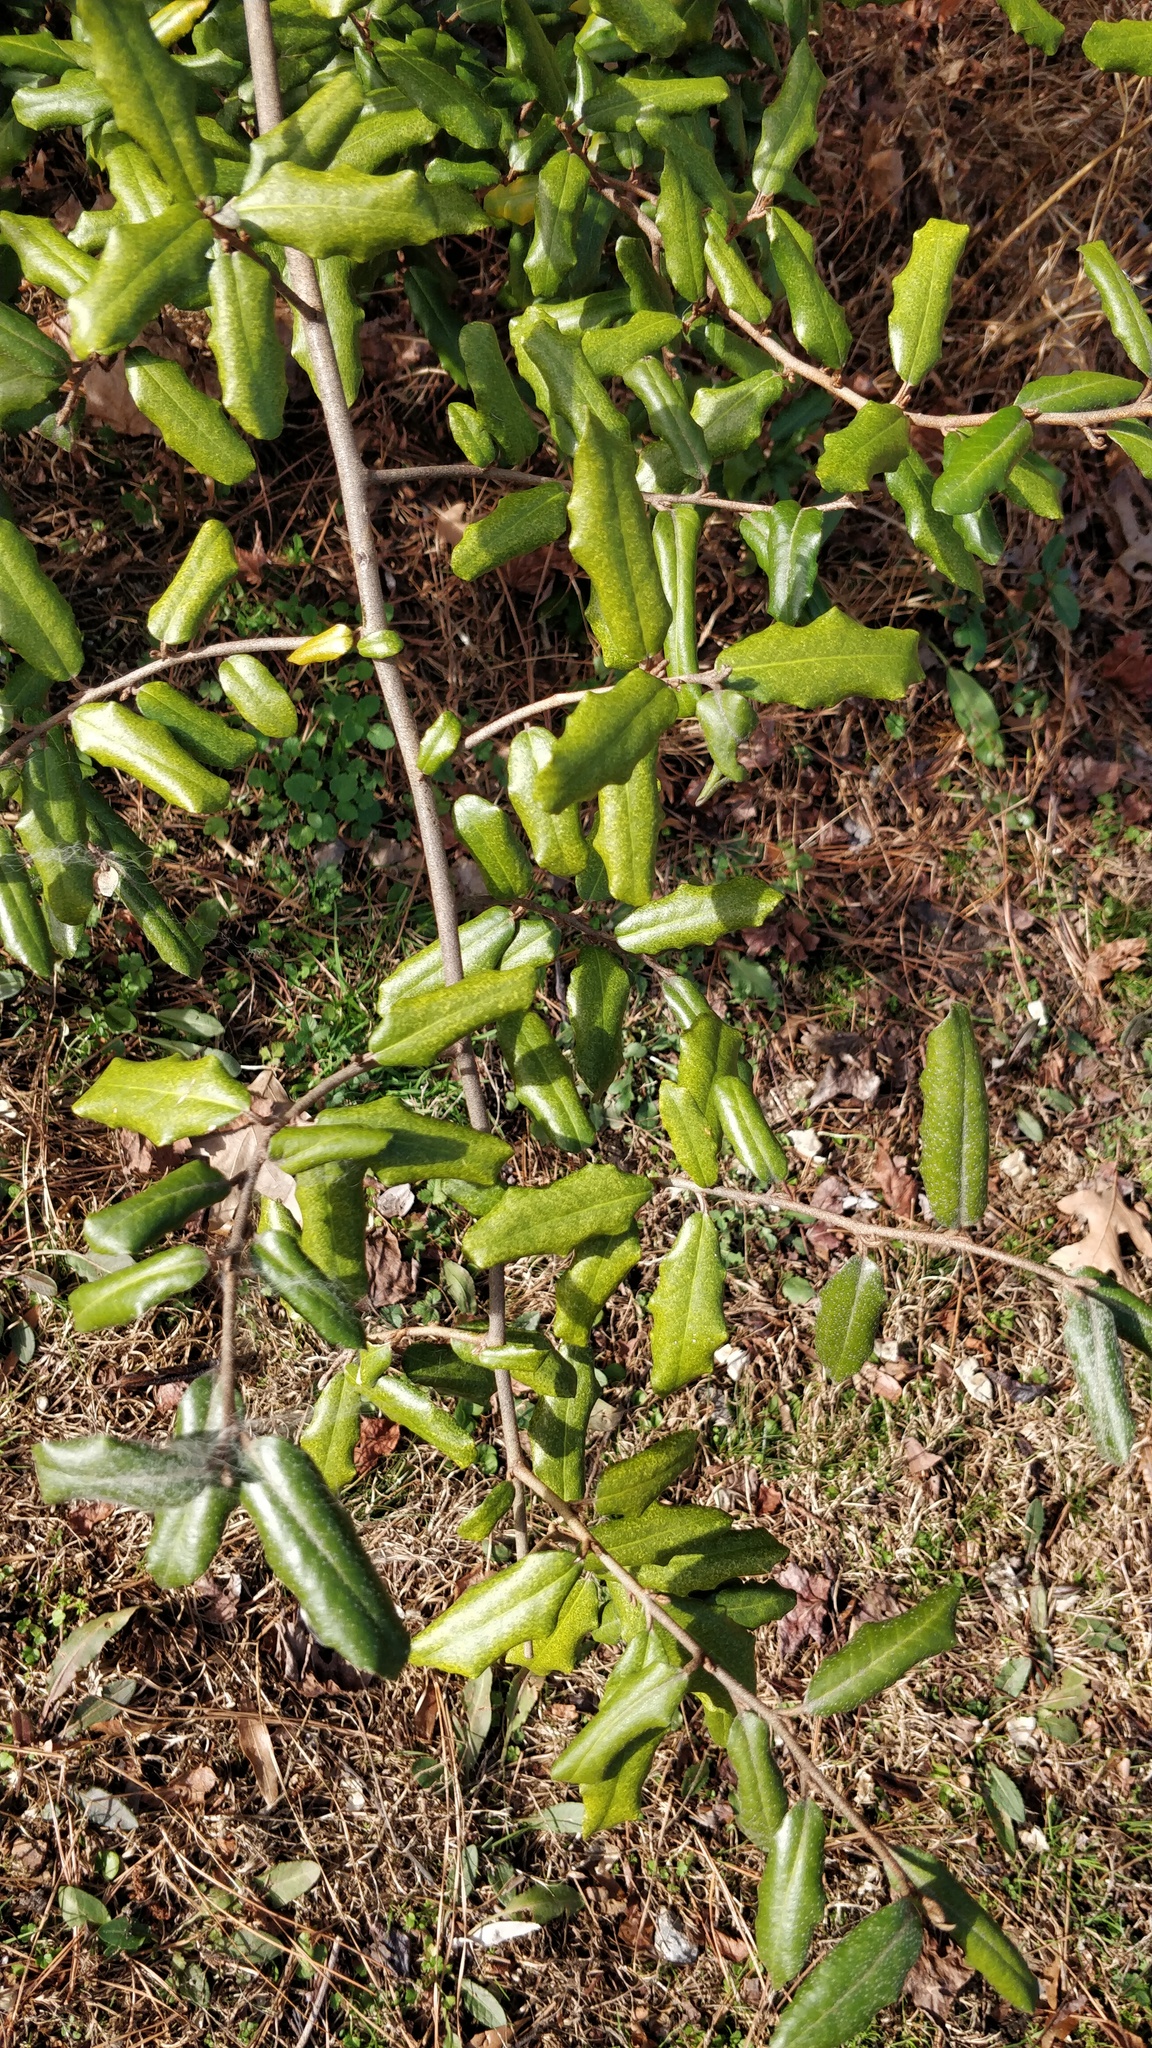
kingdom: Plantae
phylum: Tracheophyta
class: Magnoliopsida
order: Rosales
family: Elaeagnaceae
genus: Elaeagnus
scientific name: Elaeagnus pungens
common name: Spiny oleaster
